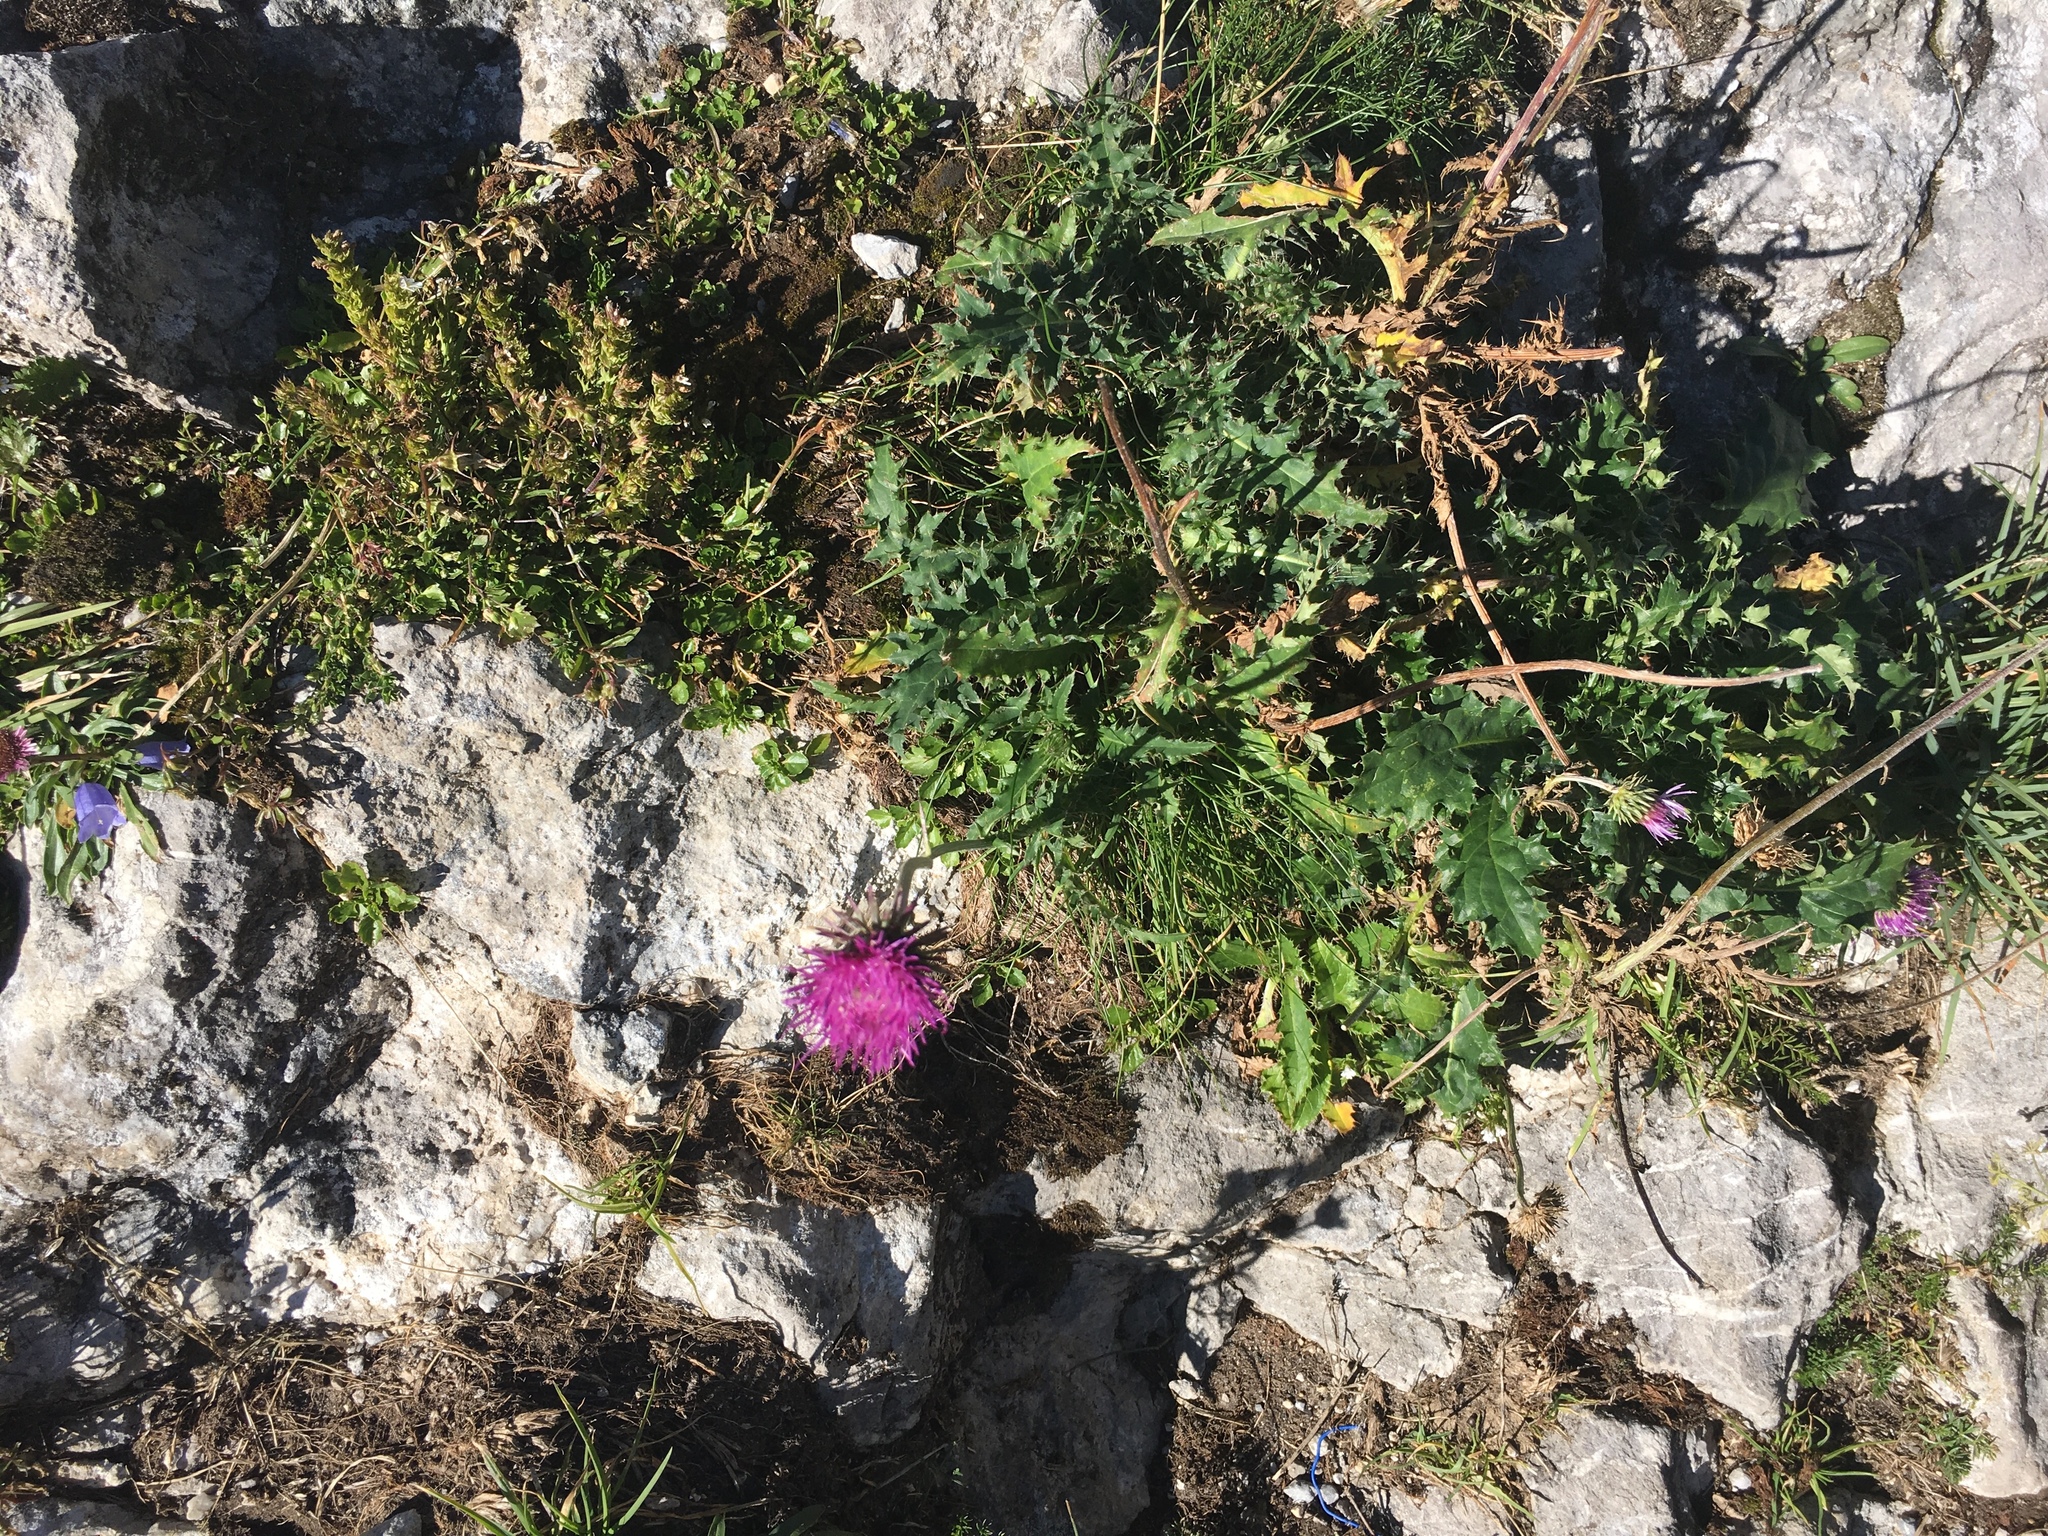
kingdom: Plantae
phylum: Tracheophyta
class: Magnoliopsida
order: Asterales
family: Asteraceae
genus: Carduus
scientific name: Carduus defloratus
